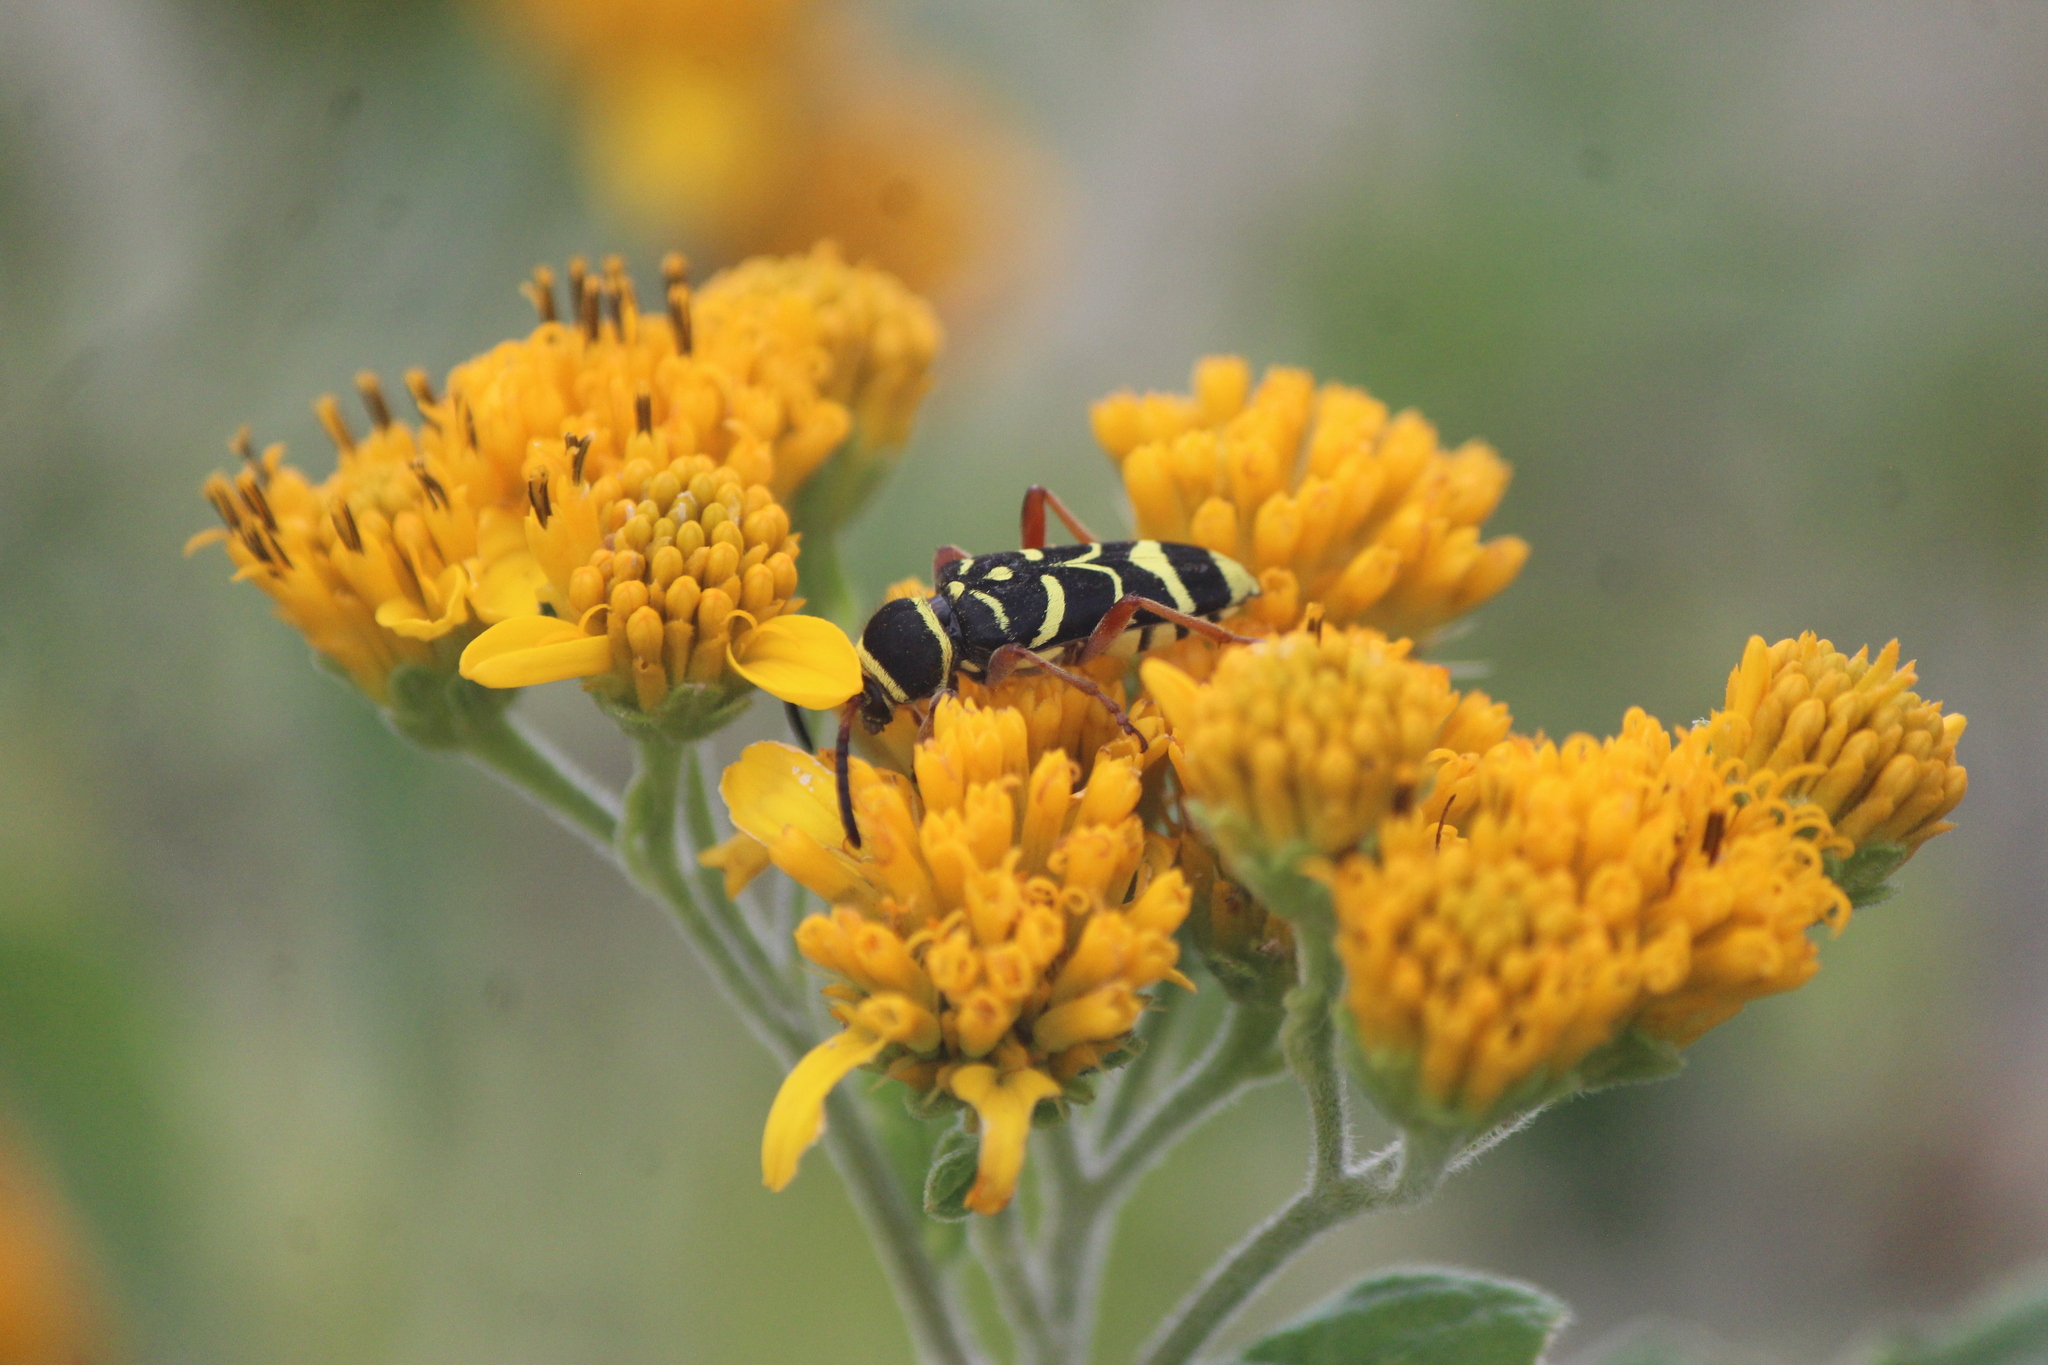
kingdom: Animalia
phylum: Arthropoda
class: Insecta
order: Coleoptera
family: Cerambycidae
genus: Ochraethes
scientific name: Ochraethes dimidiaticornis
